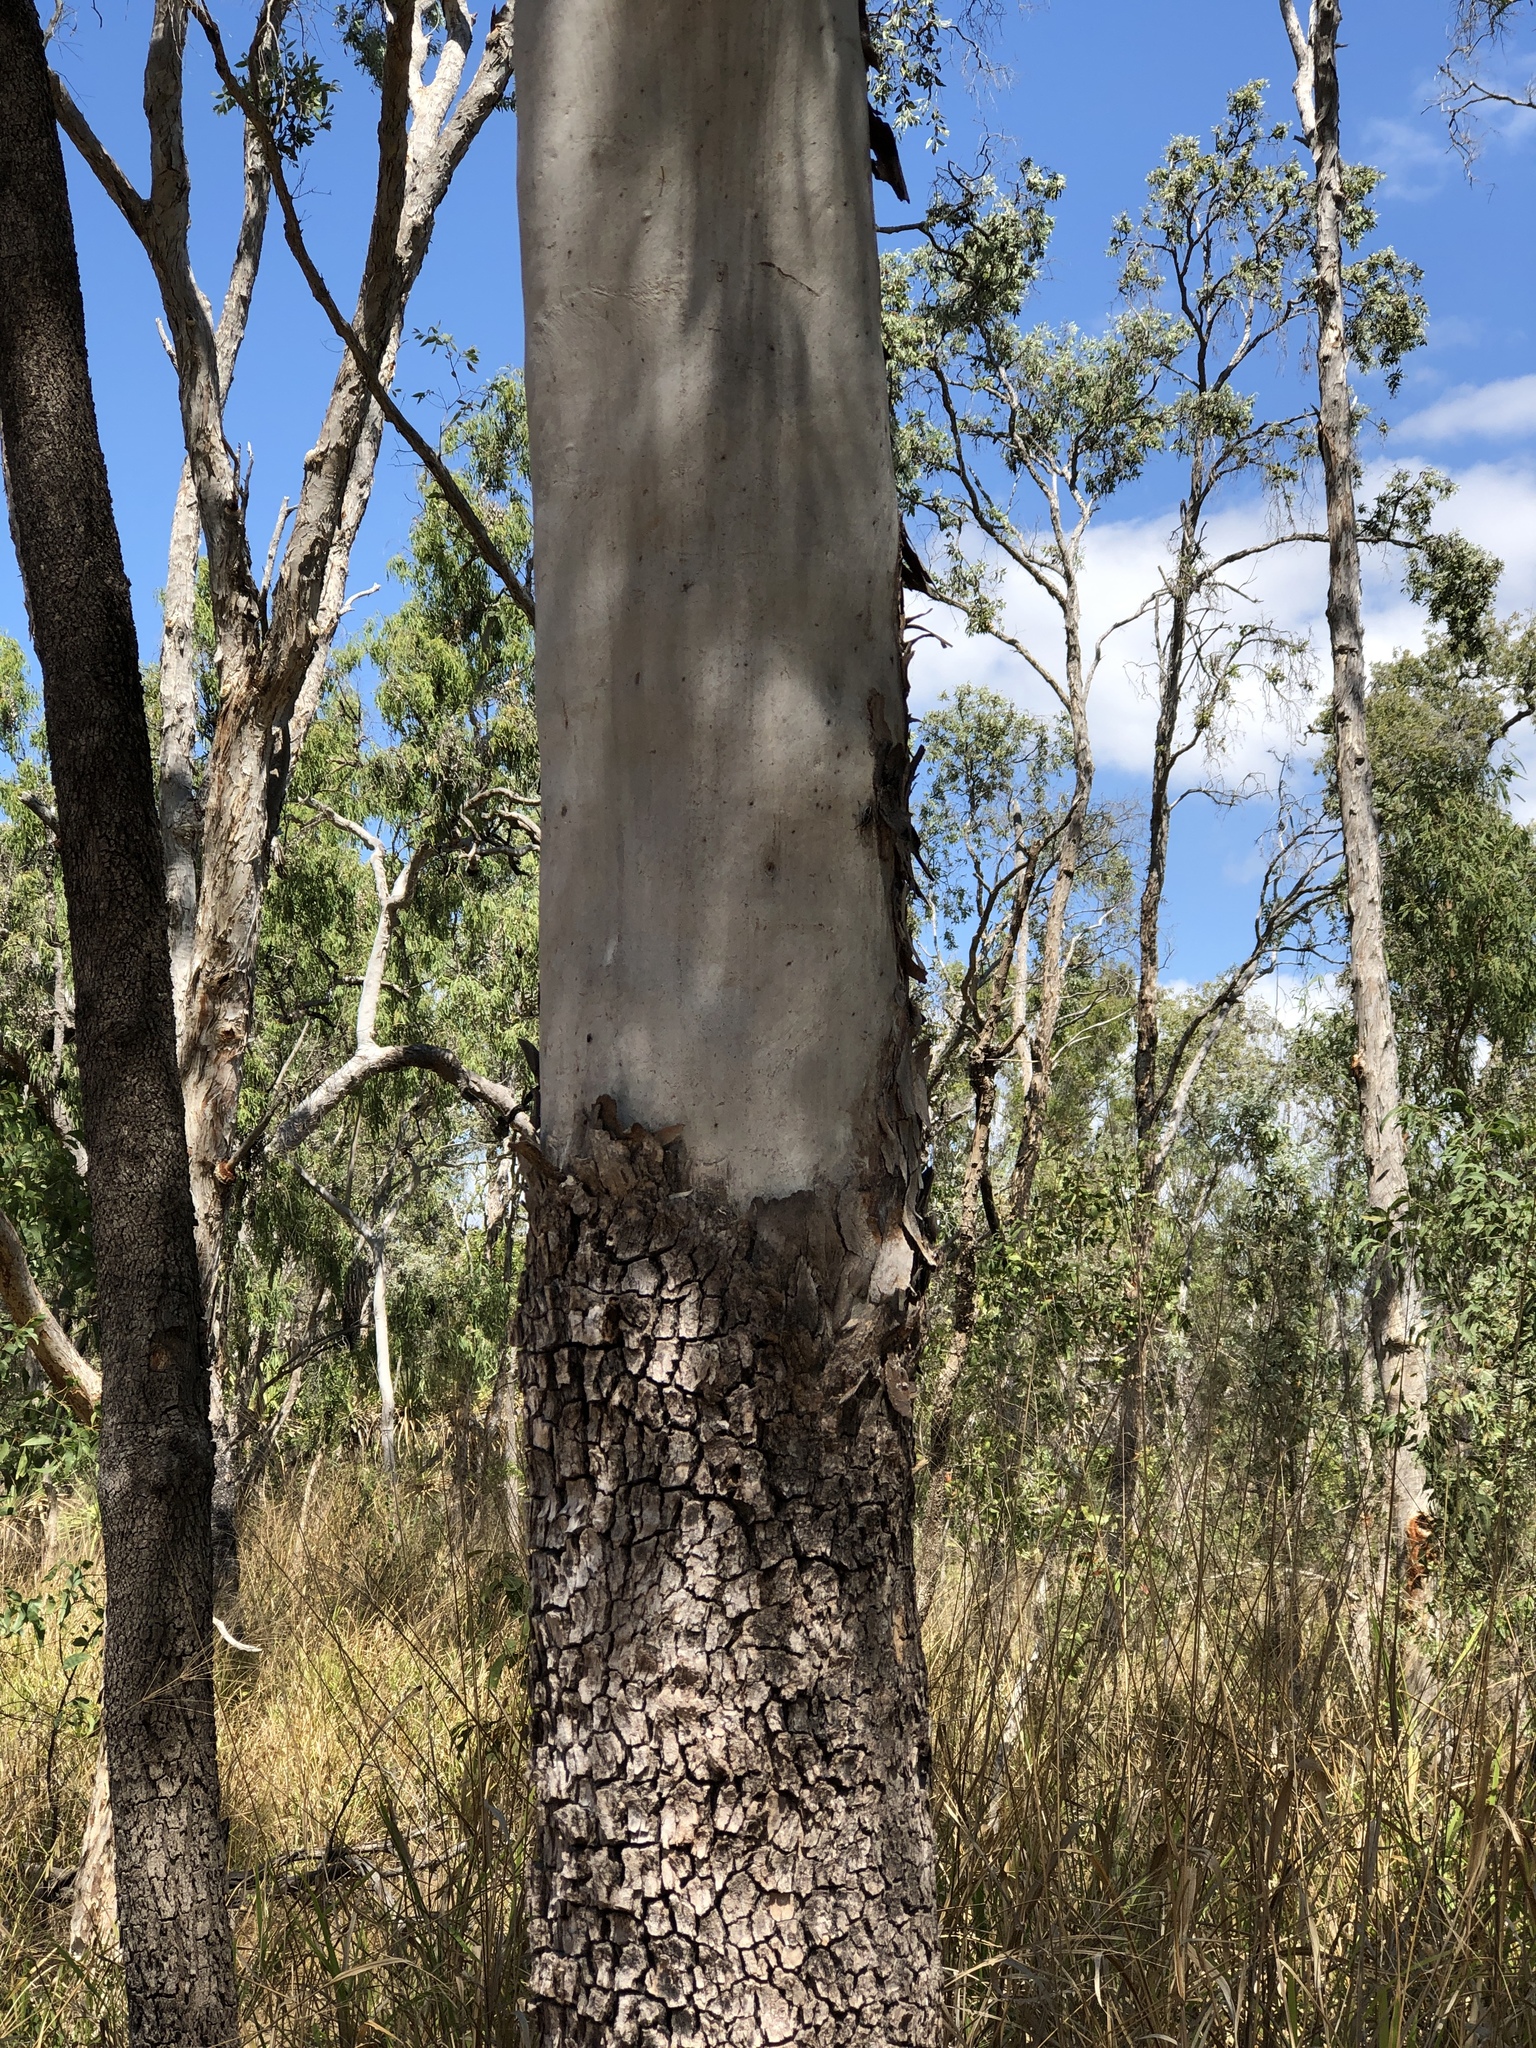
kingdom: Plantae
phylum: Tracheophyta
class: Magnoliopsida
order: Myrtales
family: Myrtaceae
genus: Corymbia
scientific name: Corymbia tessellaris
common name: Carbeen
